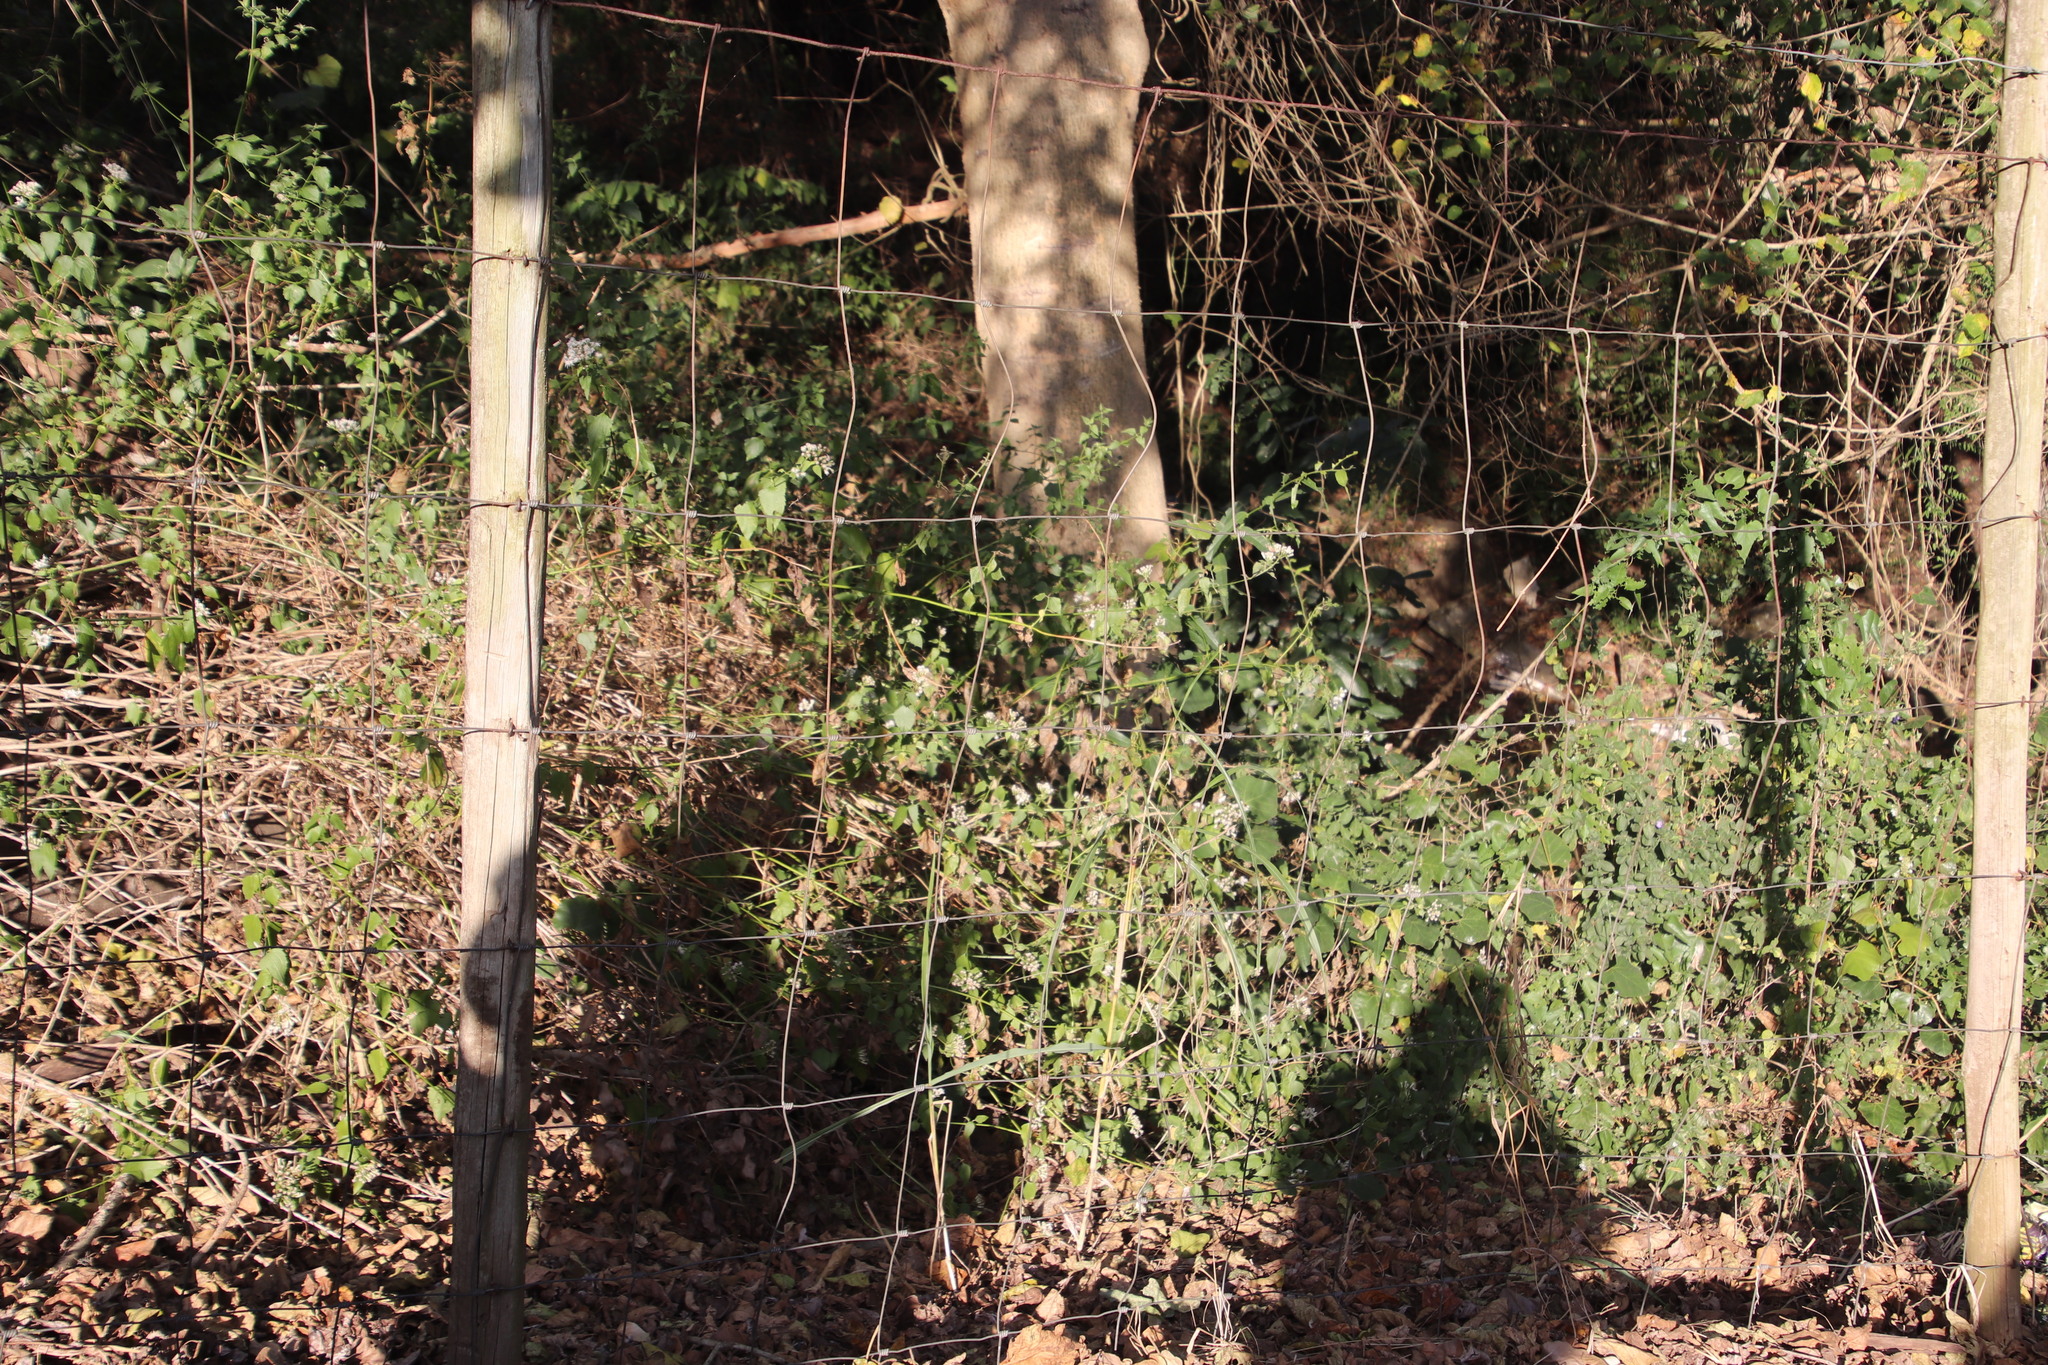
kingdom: Plantae
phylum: Tracheophyta
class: Magnoliopsida
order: Asterales
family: Asteraceae
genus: Ageratum
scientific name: Ageratum conyzoides
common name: Tropical whiteweed
